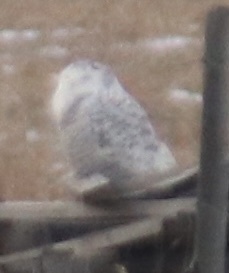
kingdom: Animalia
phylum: Chordata
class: Aves
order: Strigiformes
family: Strigidae
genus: Bubo
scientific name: Bubo scandiacus
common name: Snowy owl
